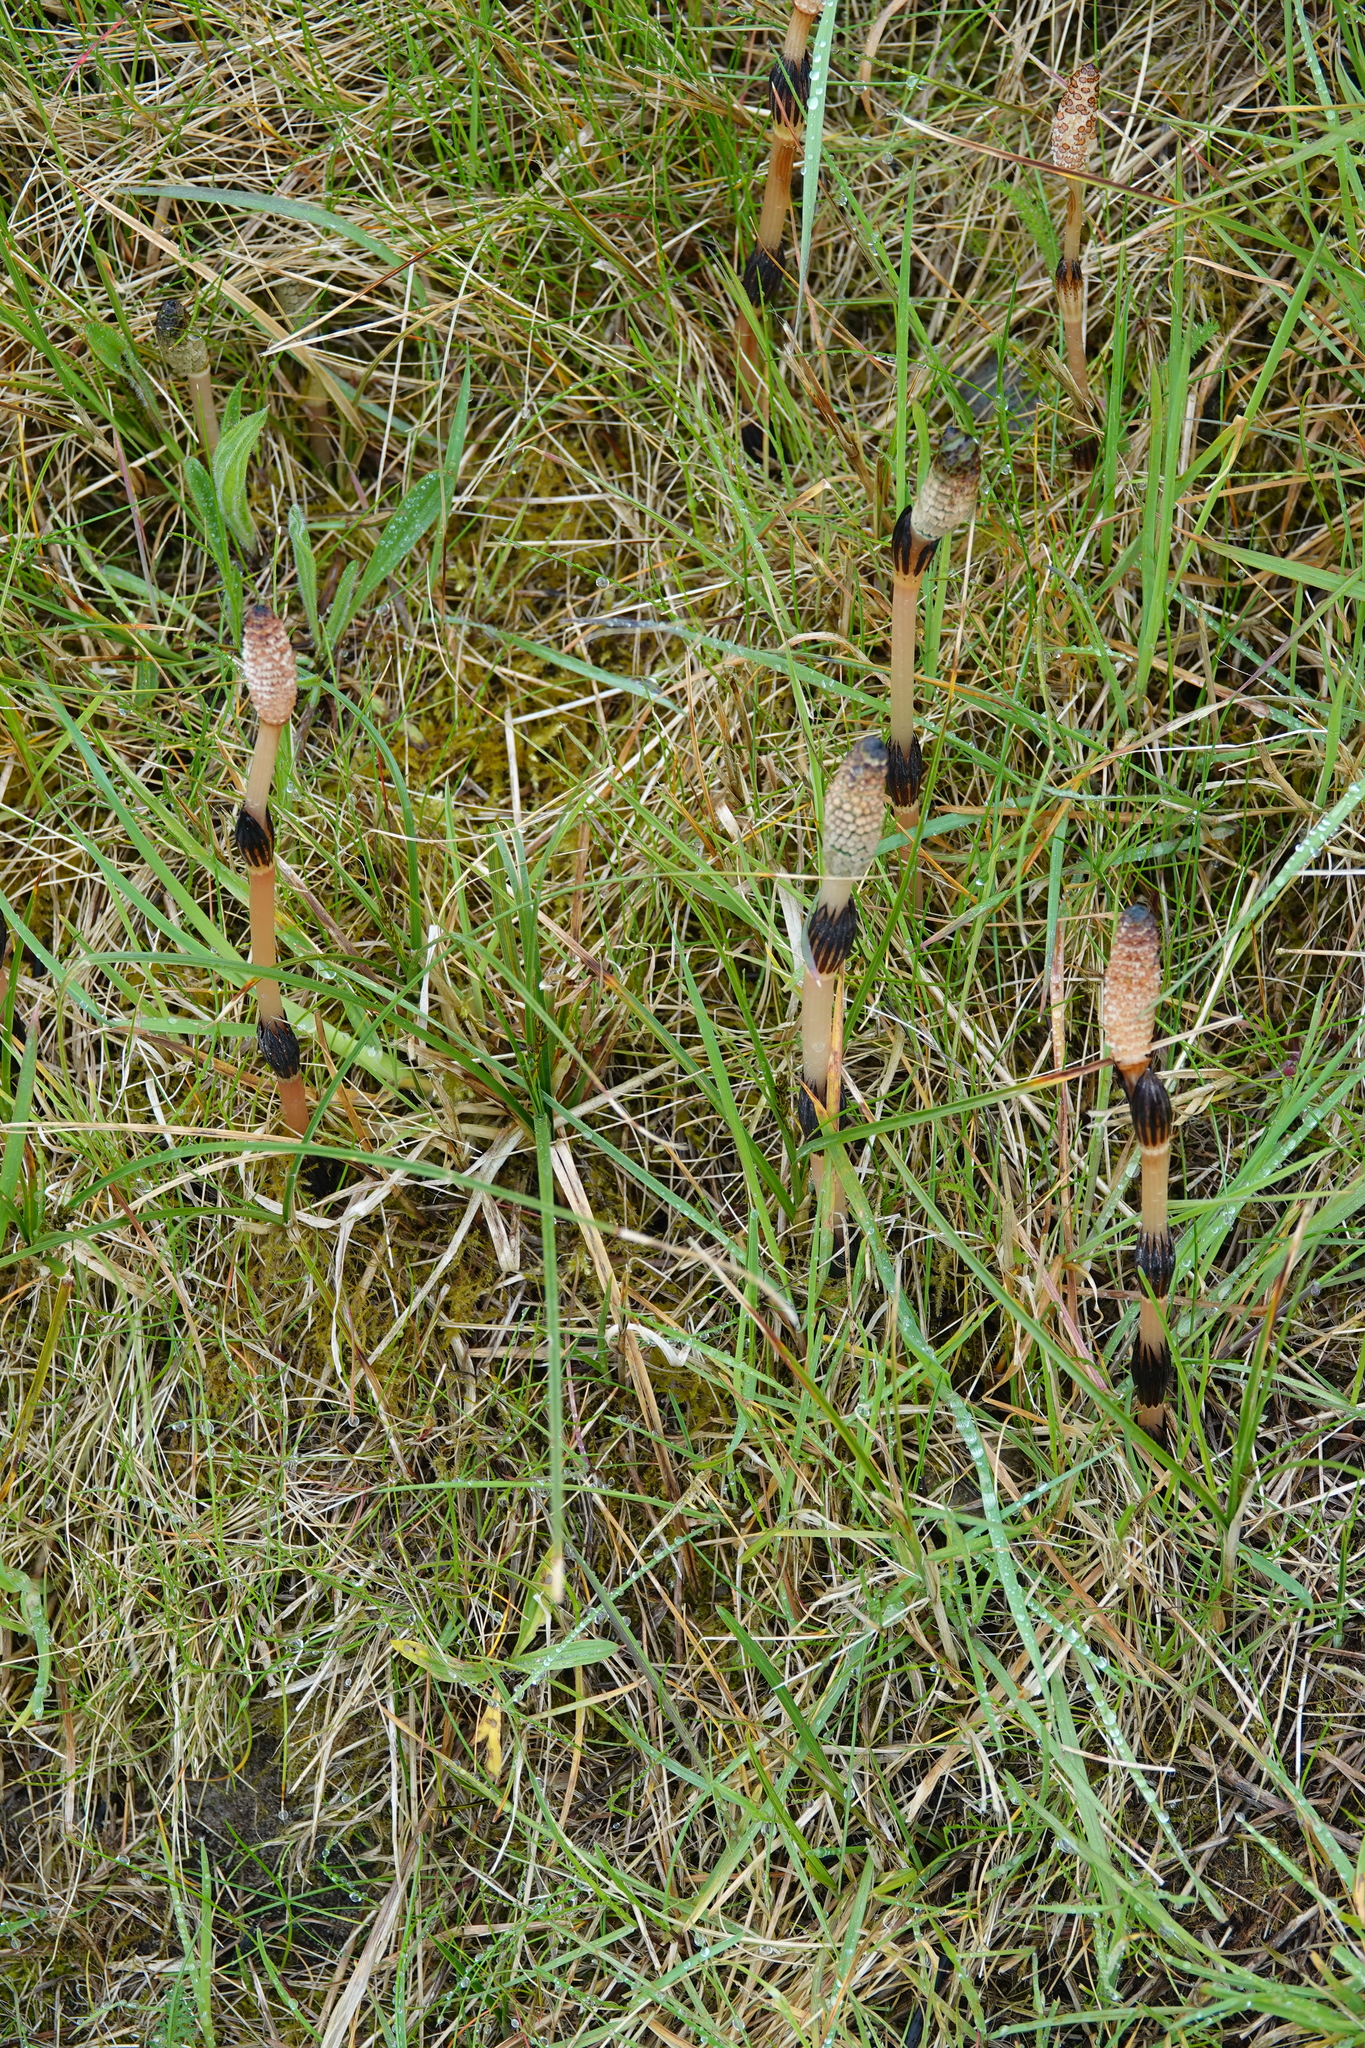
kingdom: Plantae
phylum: Tracheophyta
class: Polypodiopsida
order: Equisetales
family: Equisetaceae
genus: Equisetum
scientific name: Equisetum arvense
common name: Field horsetail
